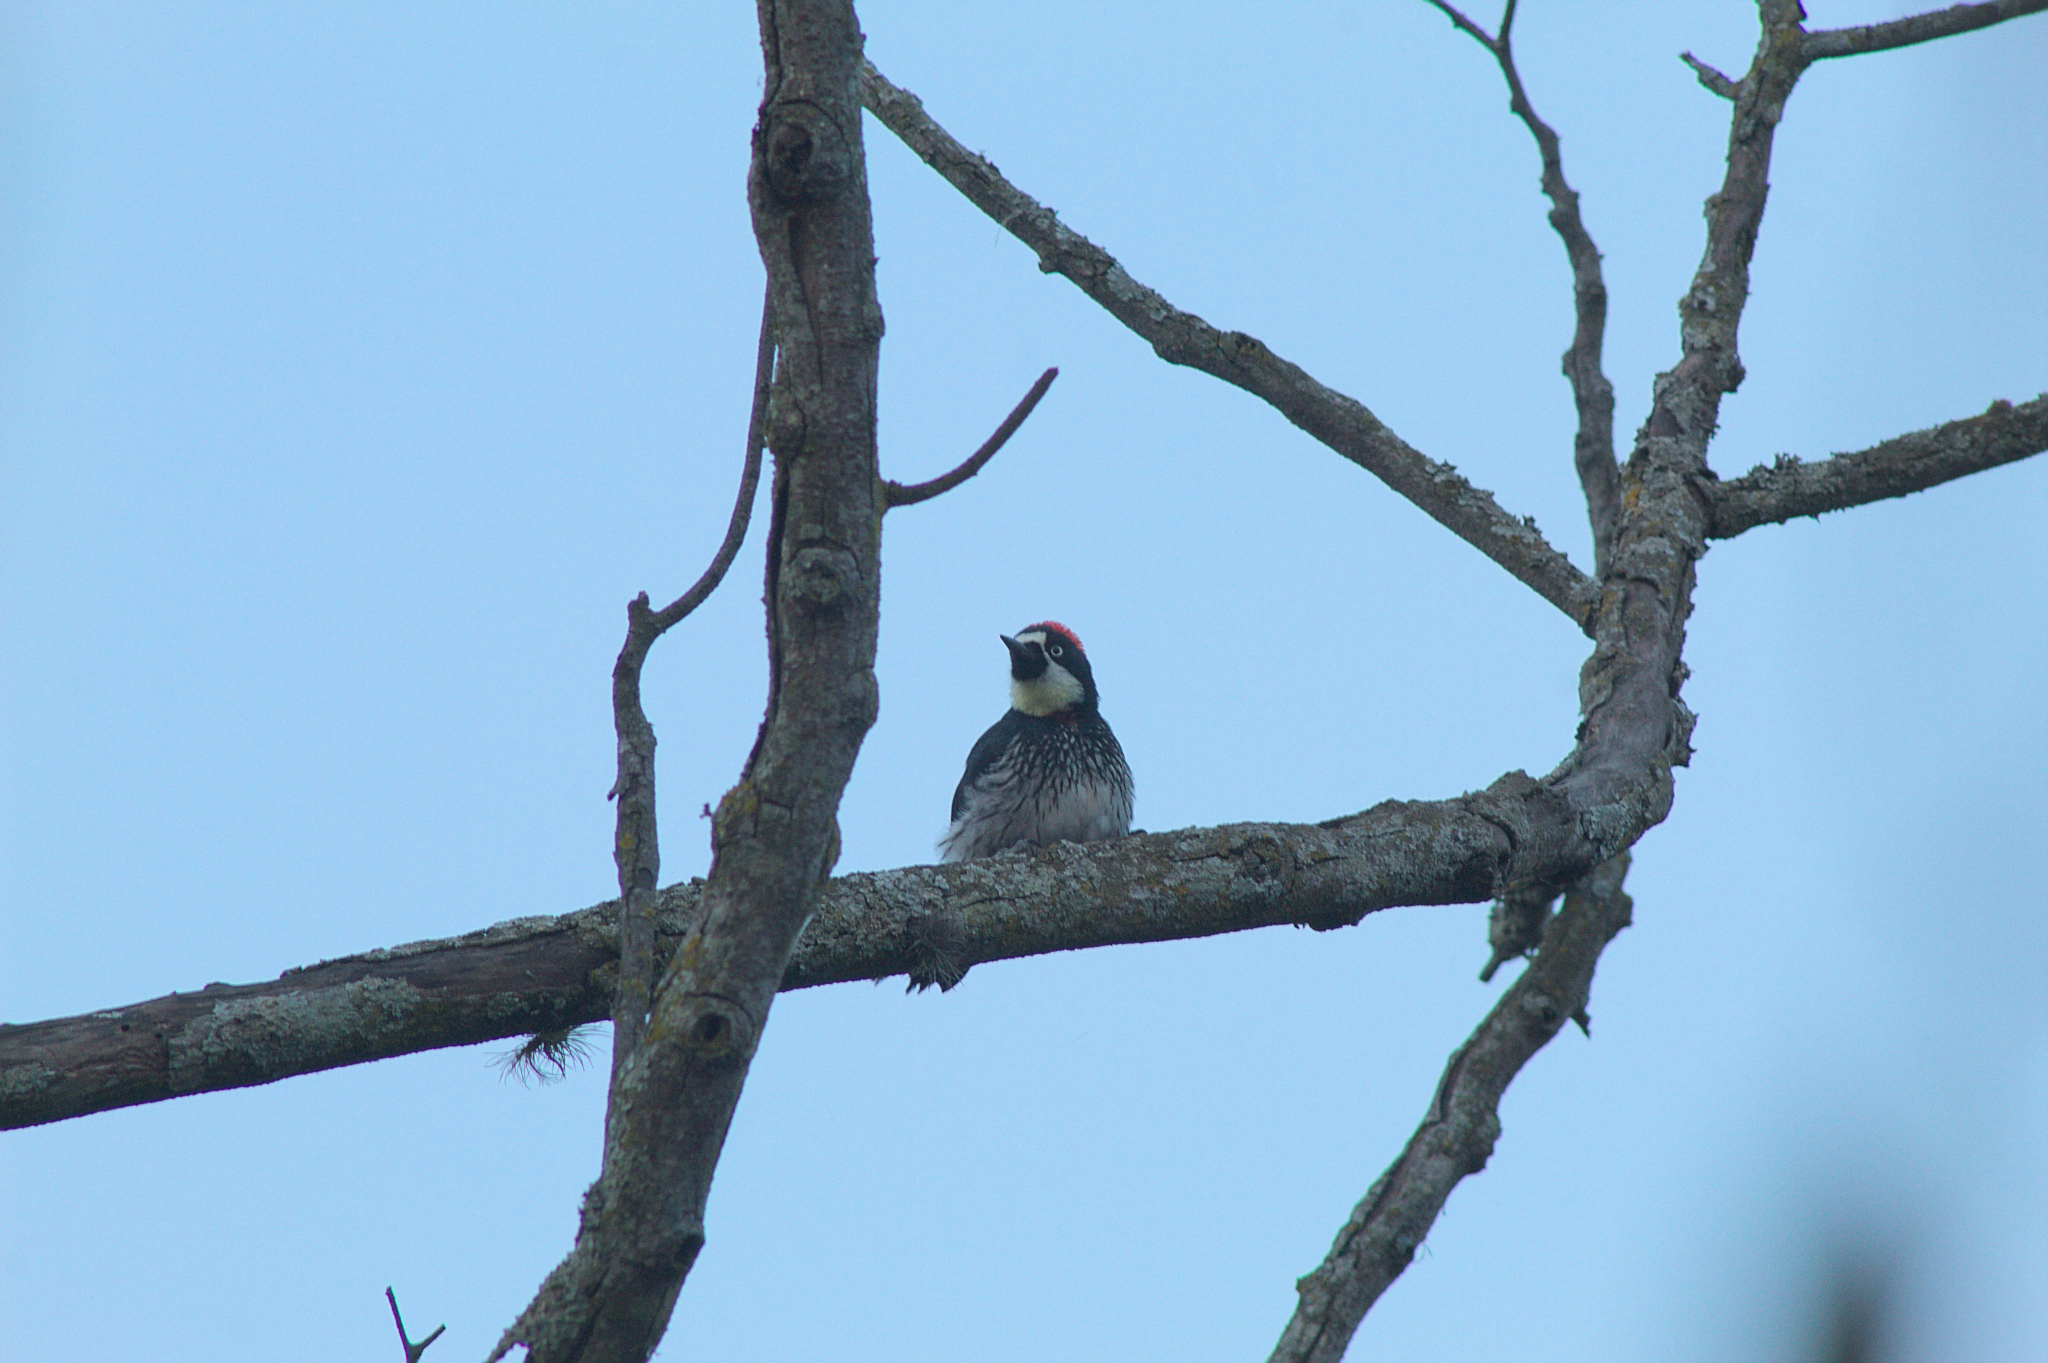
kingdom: Animalia
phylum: Chordata
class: Aves
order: Piciformes
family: Picidae
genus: Melanerpes
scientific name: Melanerpes formicivorus
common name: Acorn woodpecker
